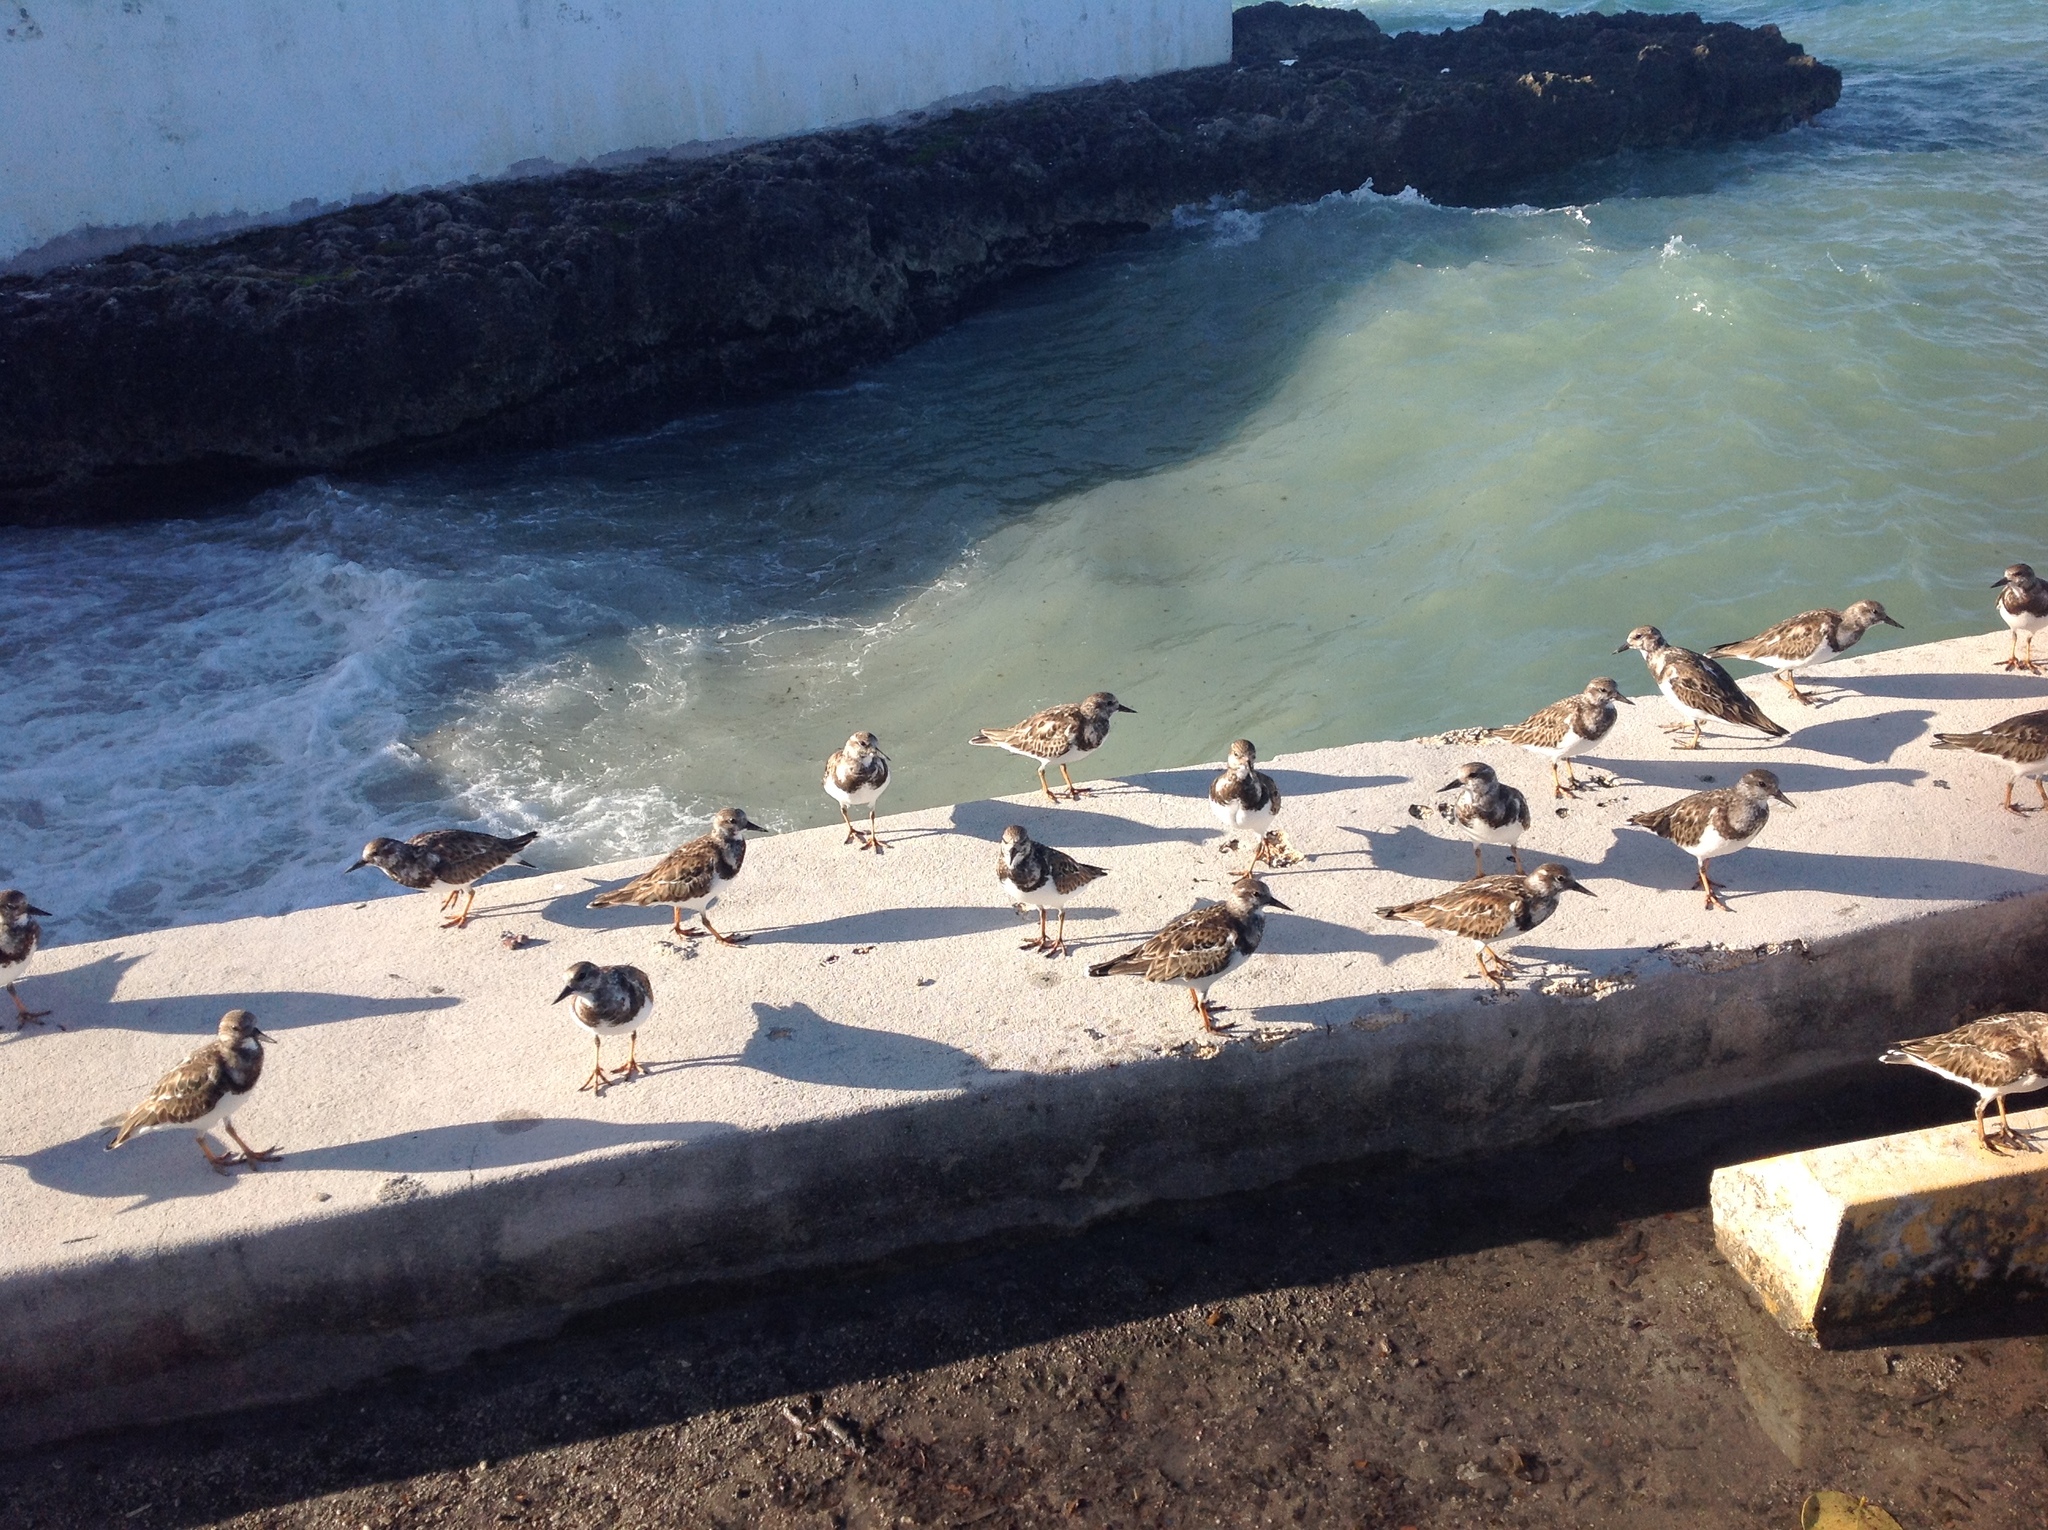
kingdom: Animalia
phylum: Chordata
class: Aves
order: Charadriiformes
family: Scolopacidae
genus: Arenaria
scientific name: Arenaria interpres
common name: Ruddy turnstone
